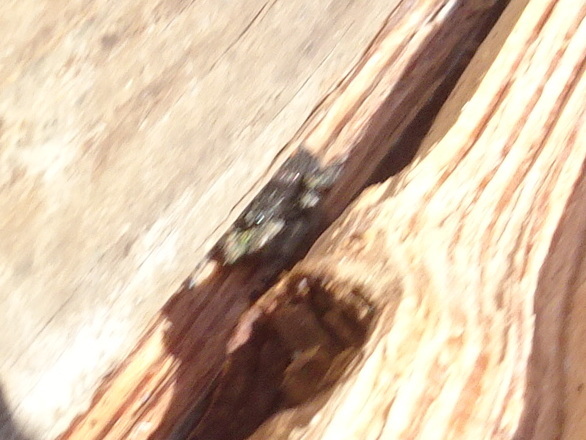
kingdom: Animalia
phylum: Arthropoda
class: Arachnida
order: Araneae
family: Salticidae
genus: Phidippus
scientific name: Phidippus audax
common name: Bold jumper
